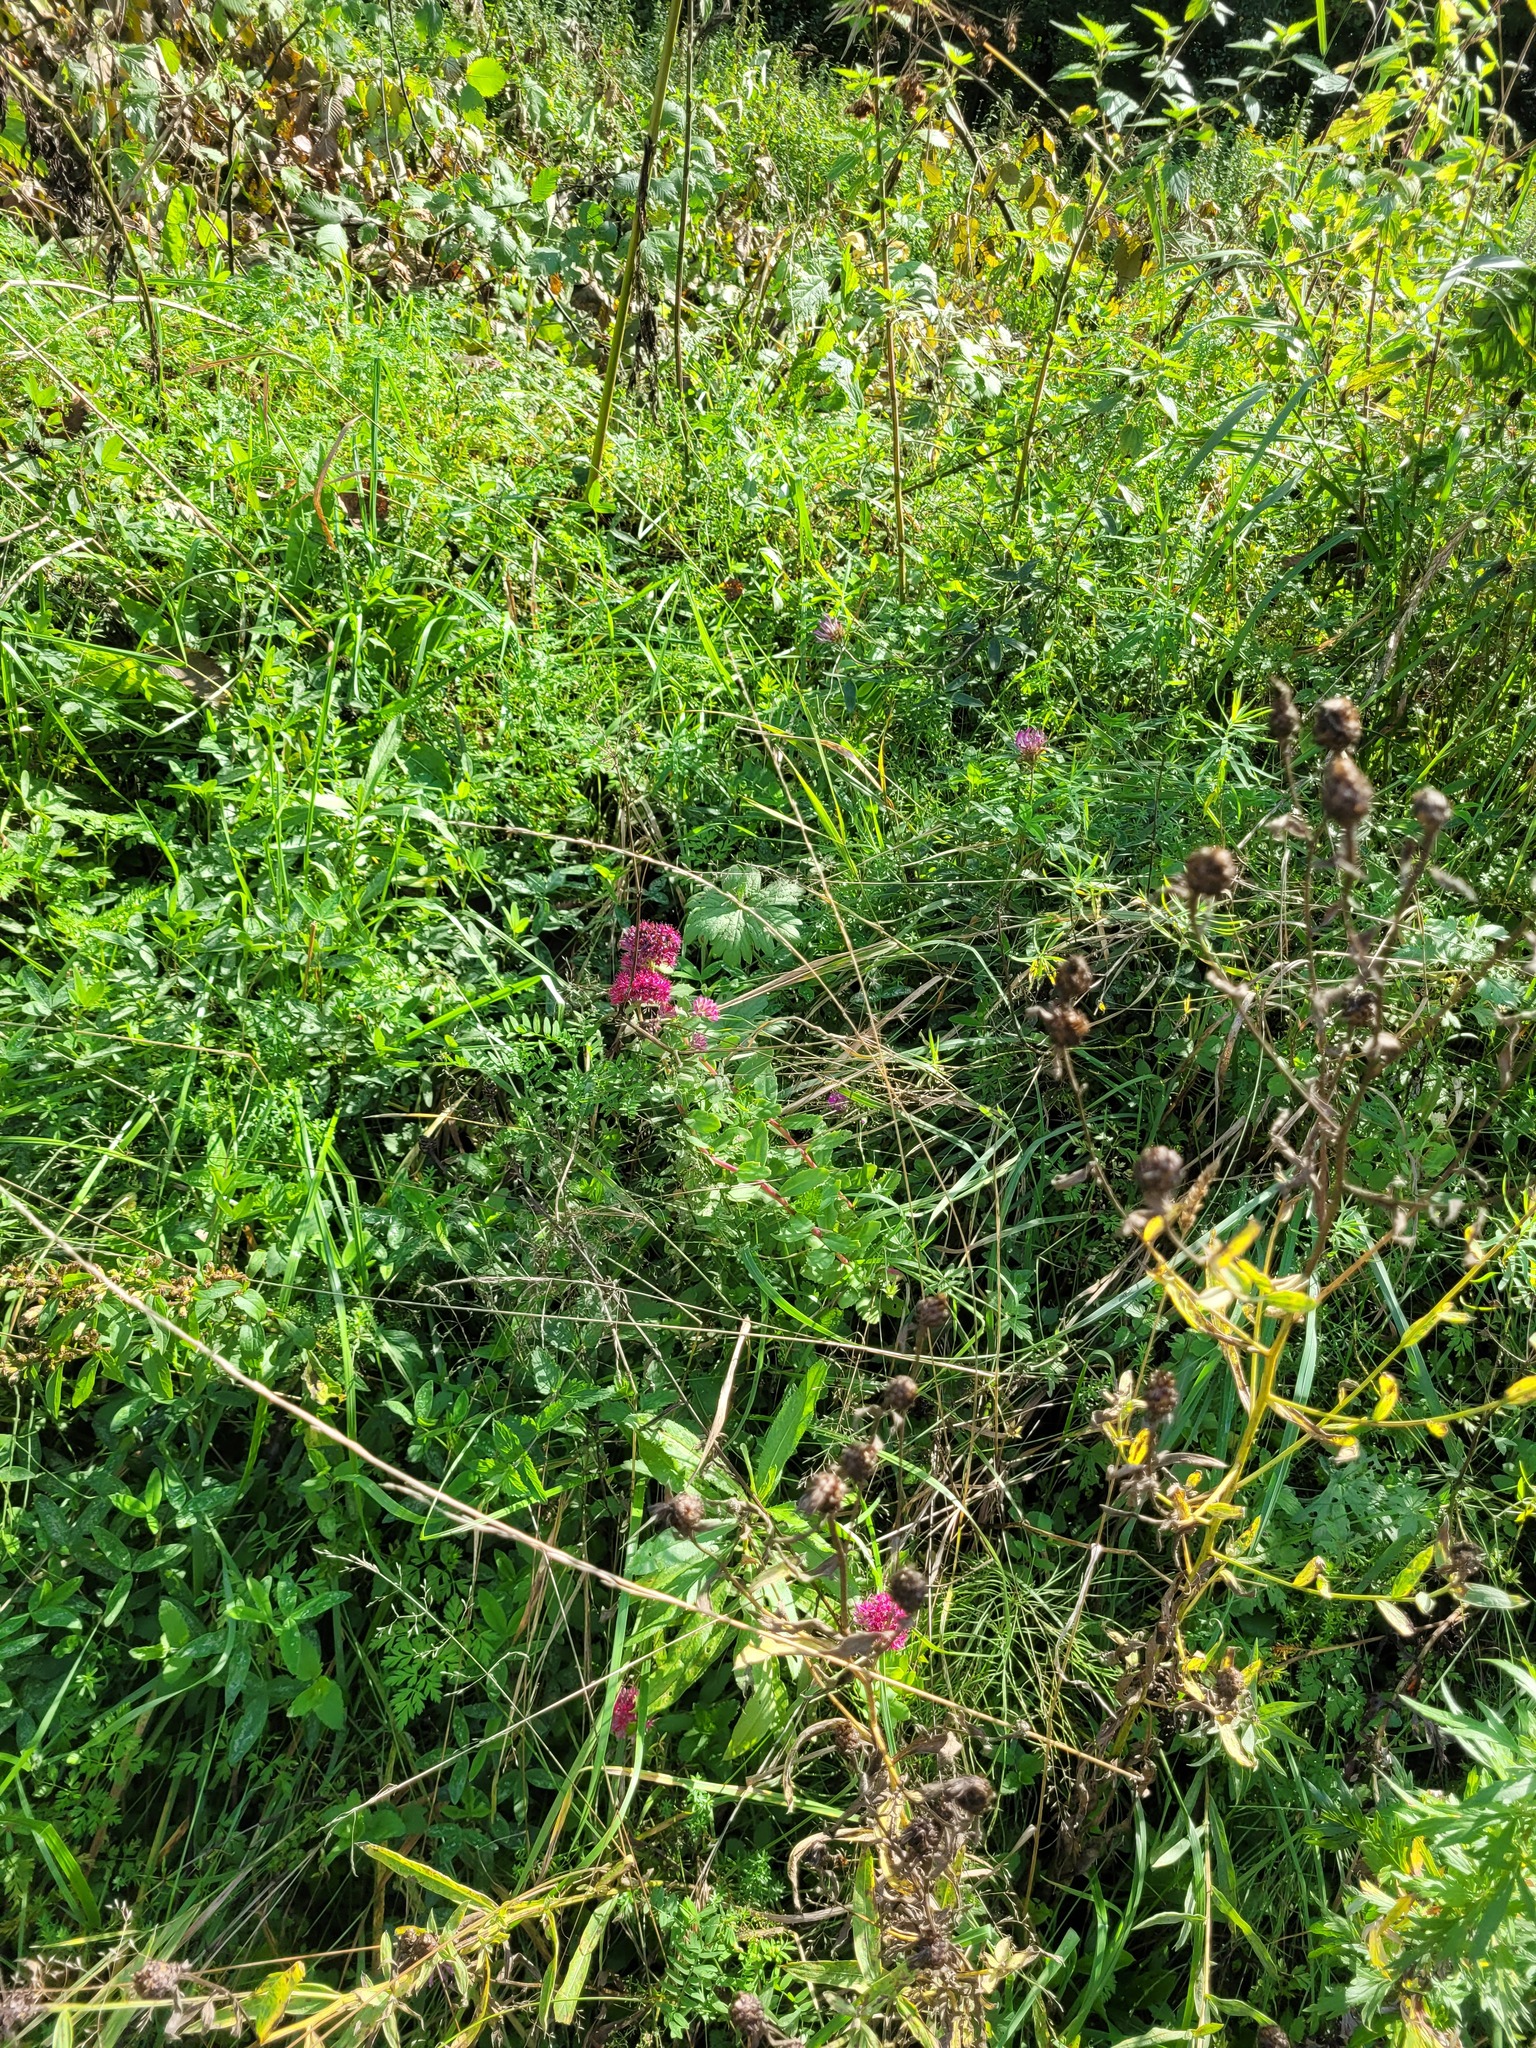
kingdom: Plantae
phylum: Tracheophyta
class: Magnoliopsida
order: Saxifragales
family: Crassulaceae
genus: Hylotelephium
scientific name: Hylotelephium telephium
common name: Live-forever
